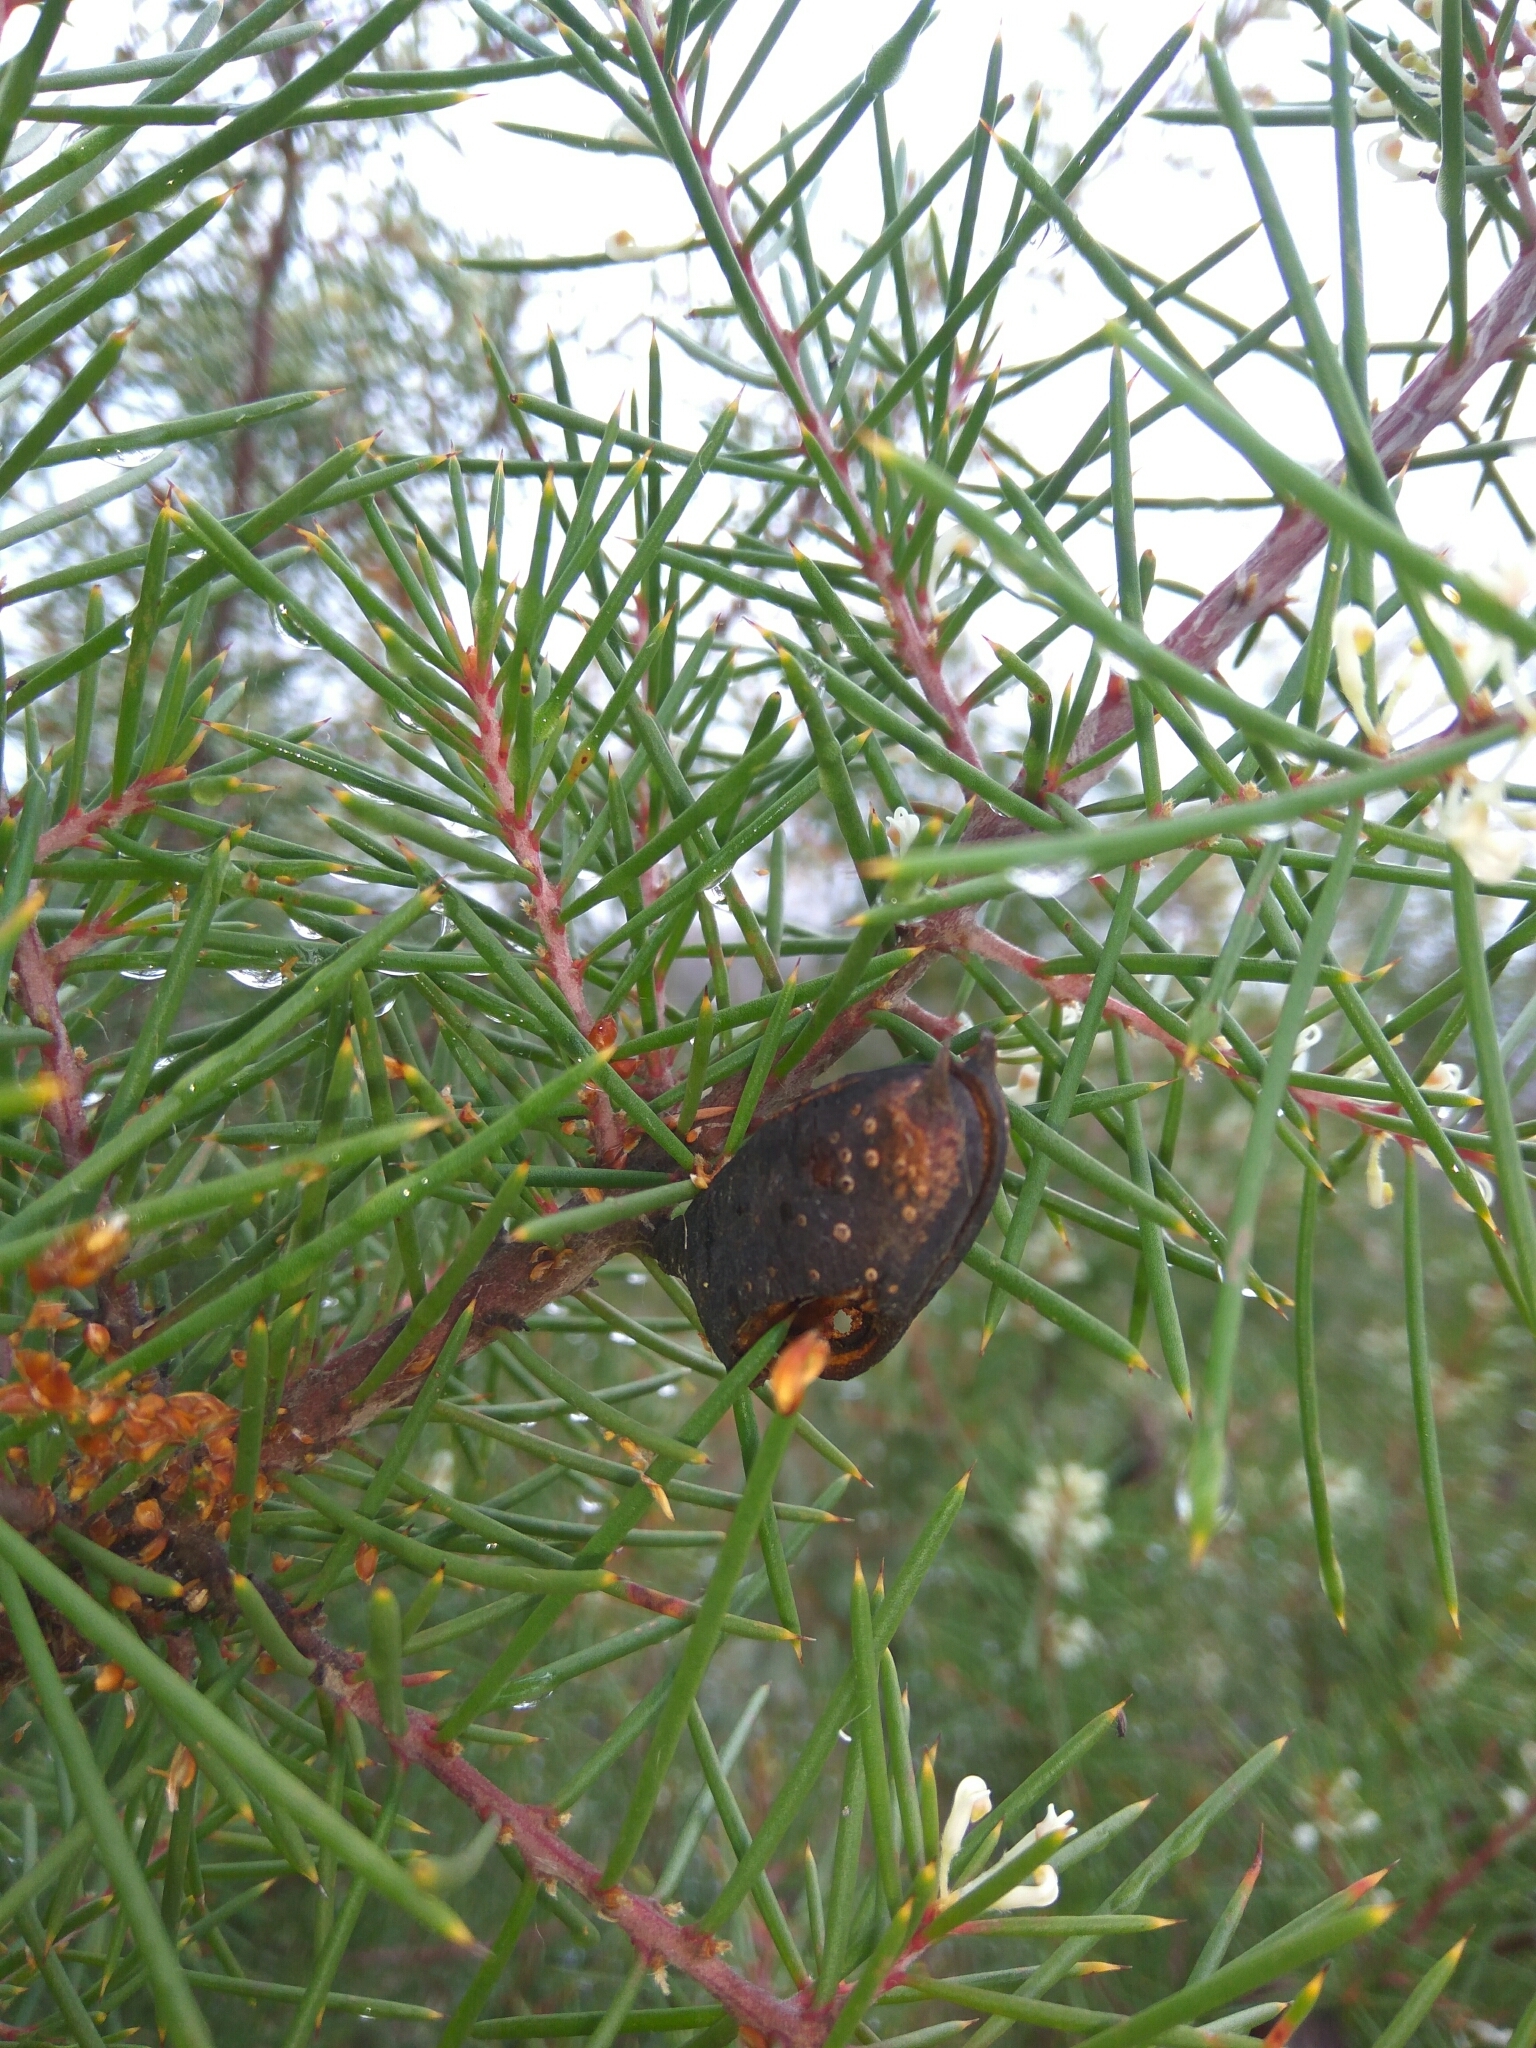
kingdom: Animalia
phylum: Arthropoda
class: Insecta
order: Coleoptera
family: Curculionidae
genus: Erytenna
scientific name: Erytenna consputa
